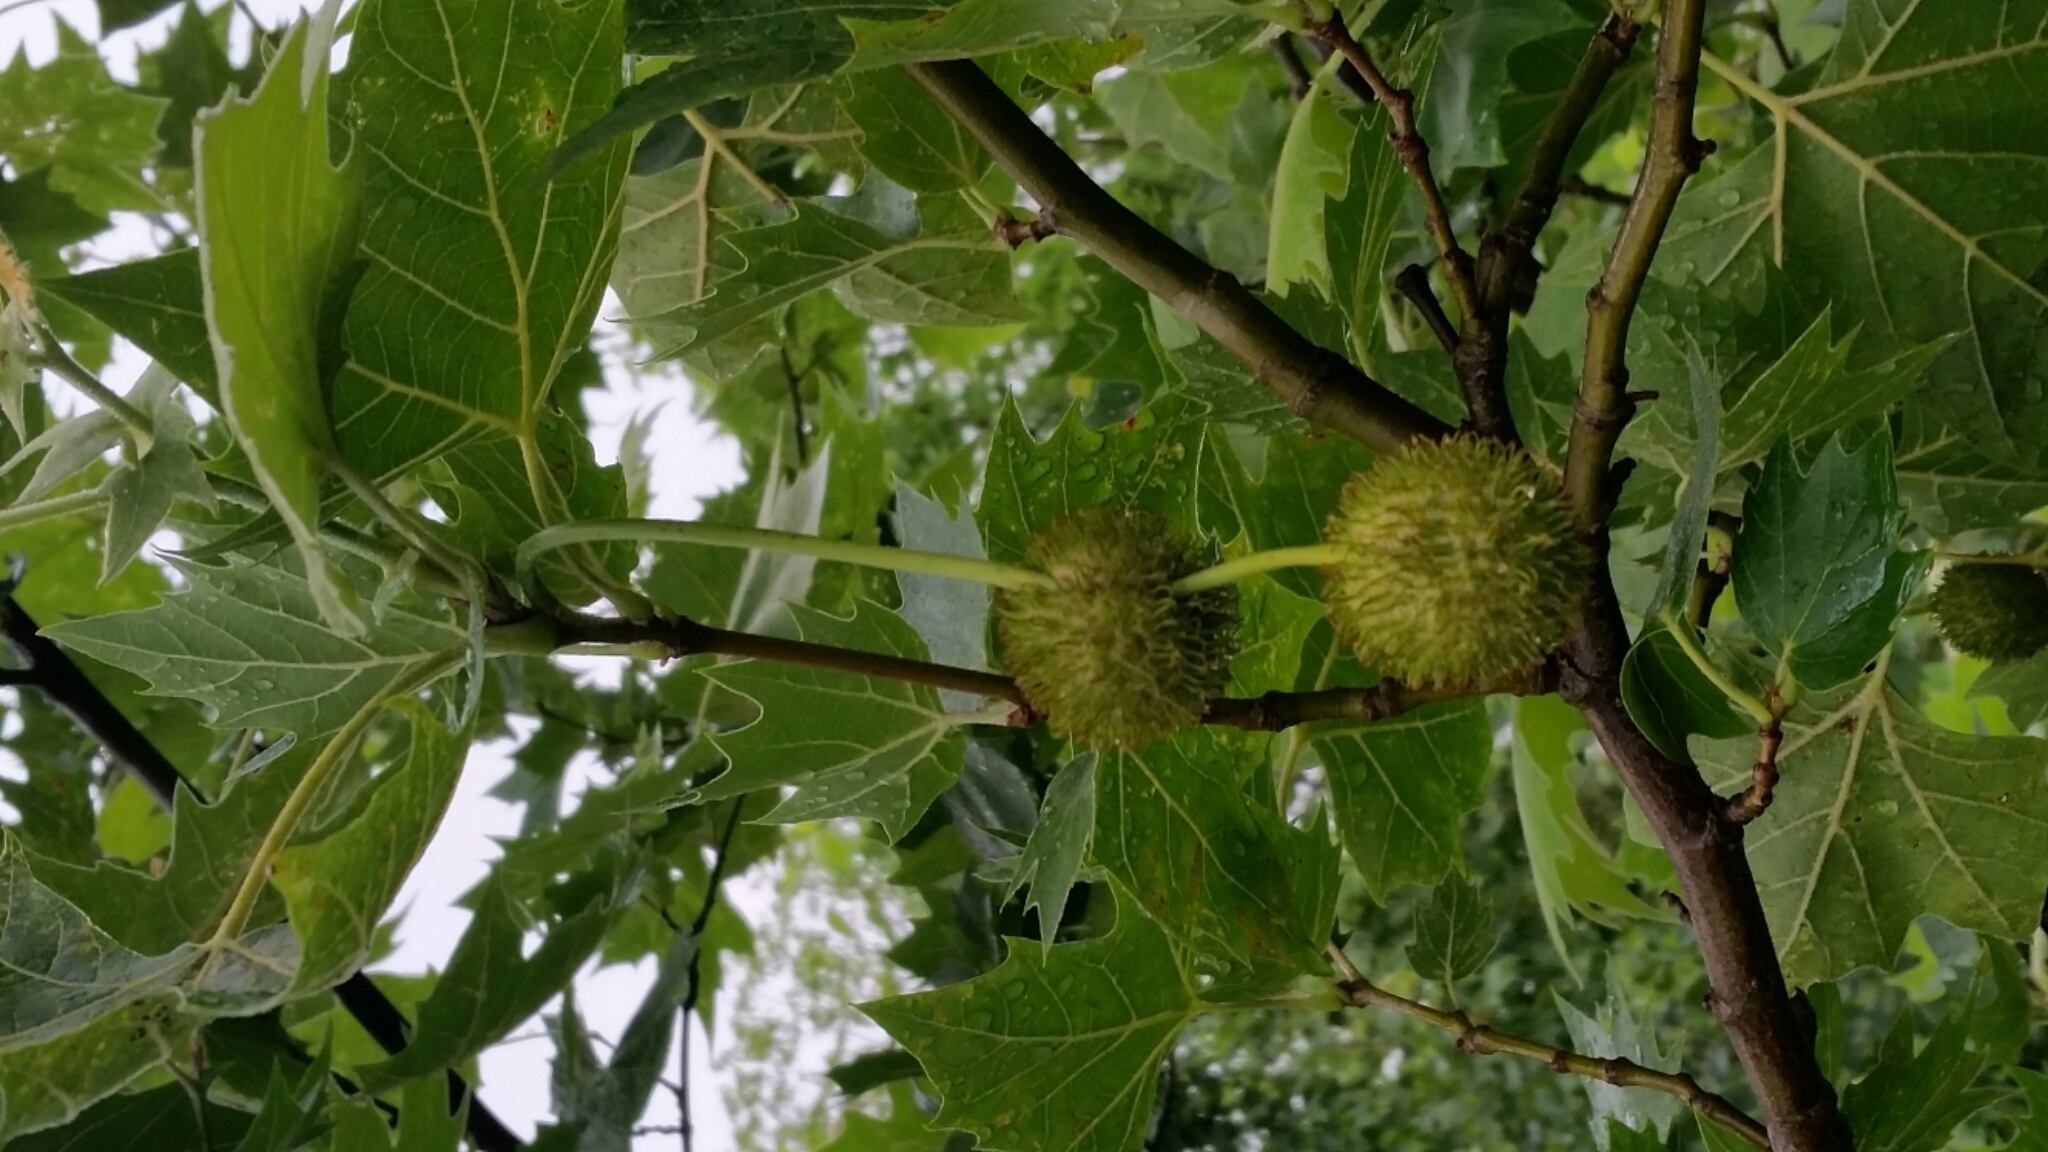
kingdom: Plantae
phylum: Tracheophyta
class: Magnoliopsida
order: Proteales
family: Platanaceae
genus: Platanus
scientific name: Platanus occidentalis
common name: American sycamore
